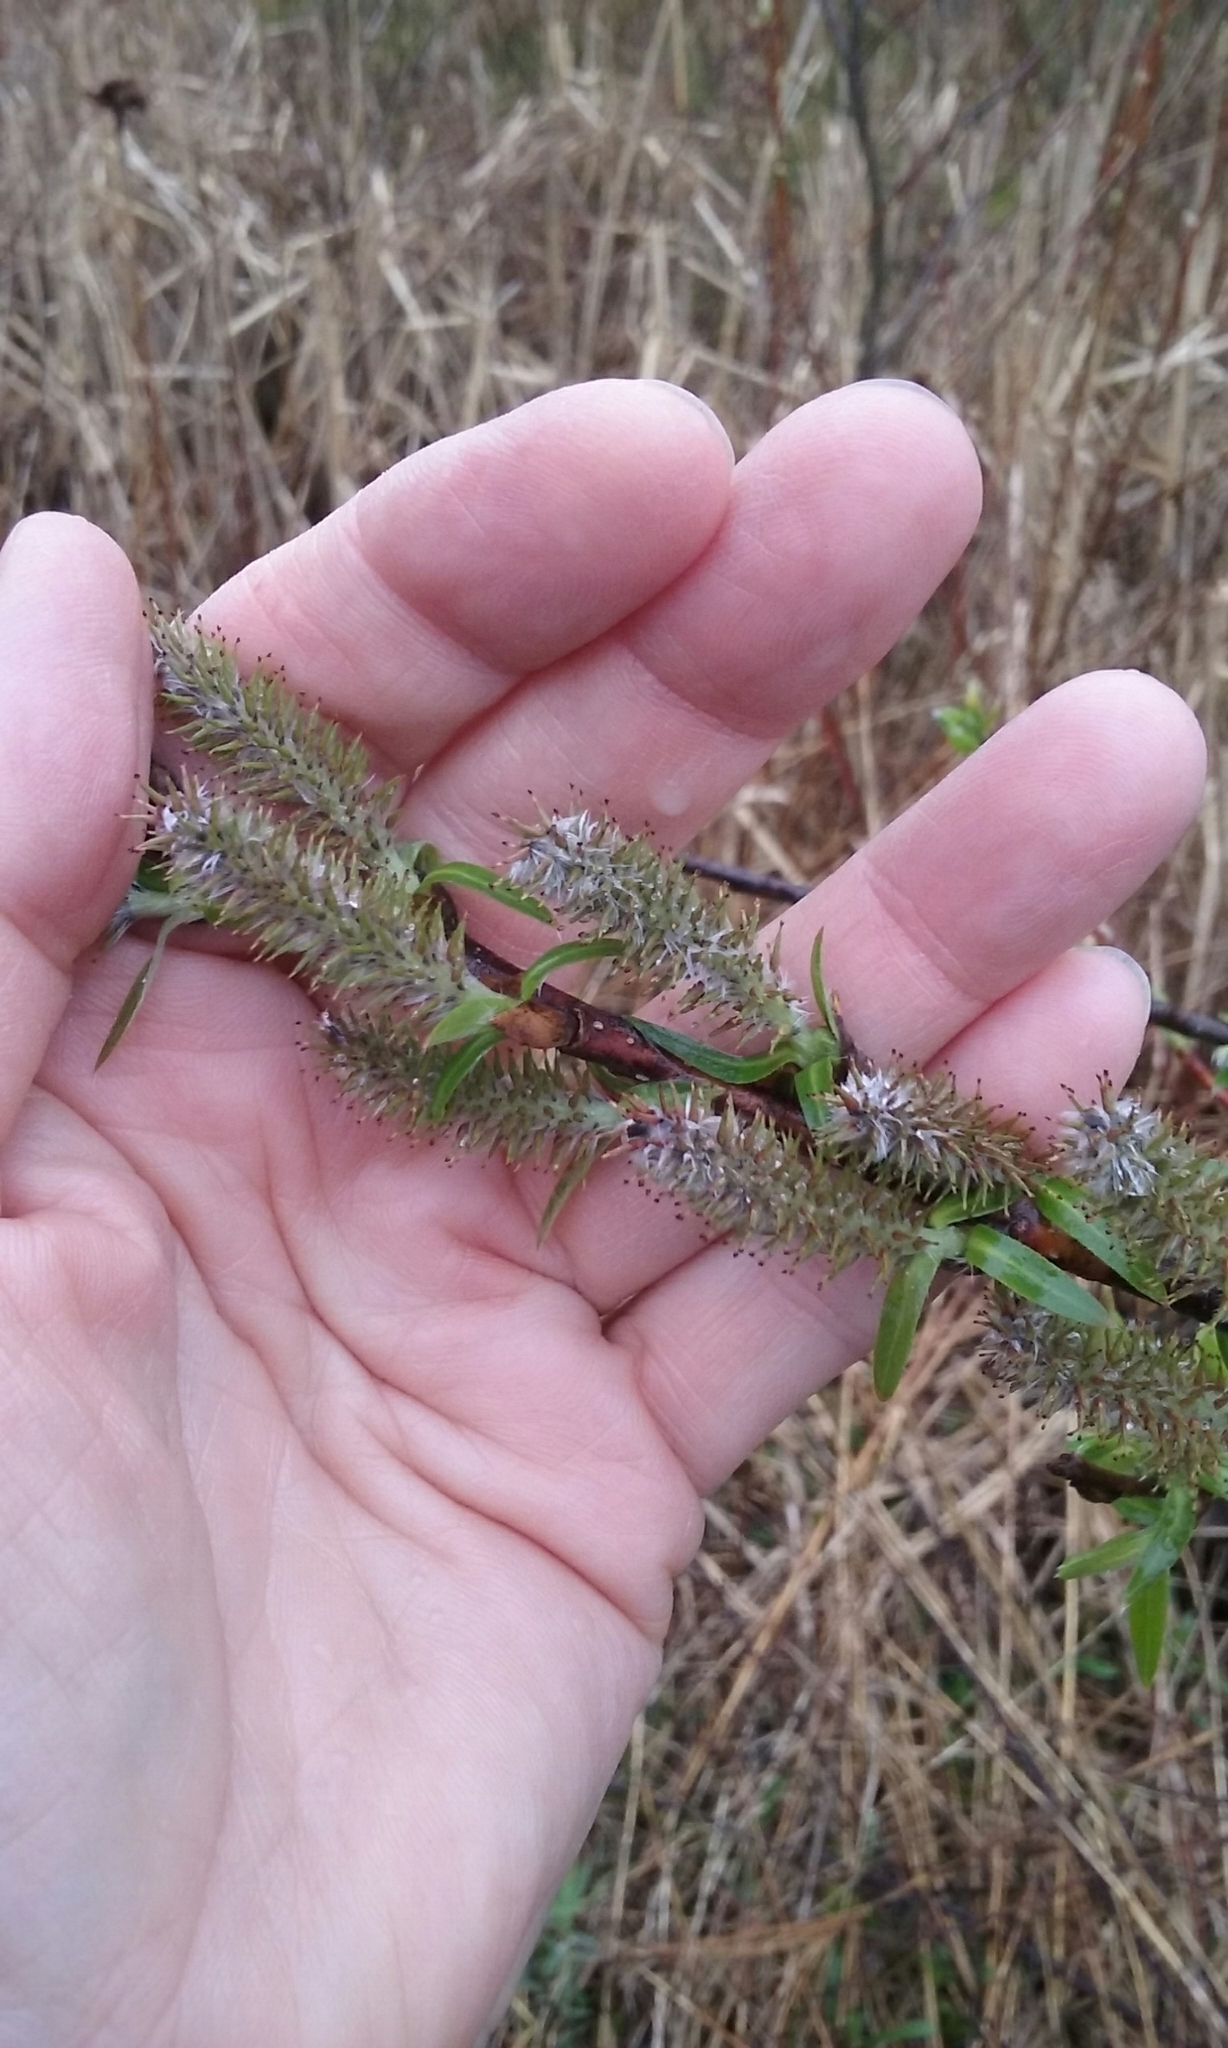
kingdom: Plantae
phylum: Tracheophyta
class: Magnoliopsida
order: Malpighiales
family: Salicaceae
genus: Salix
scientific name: Salix
